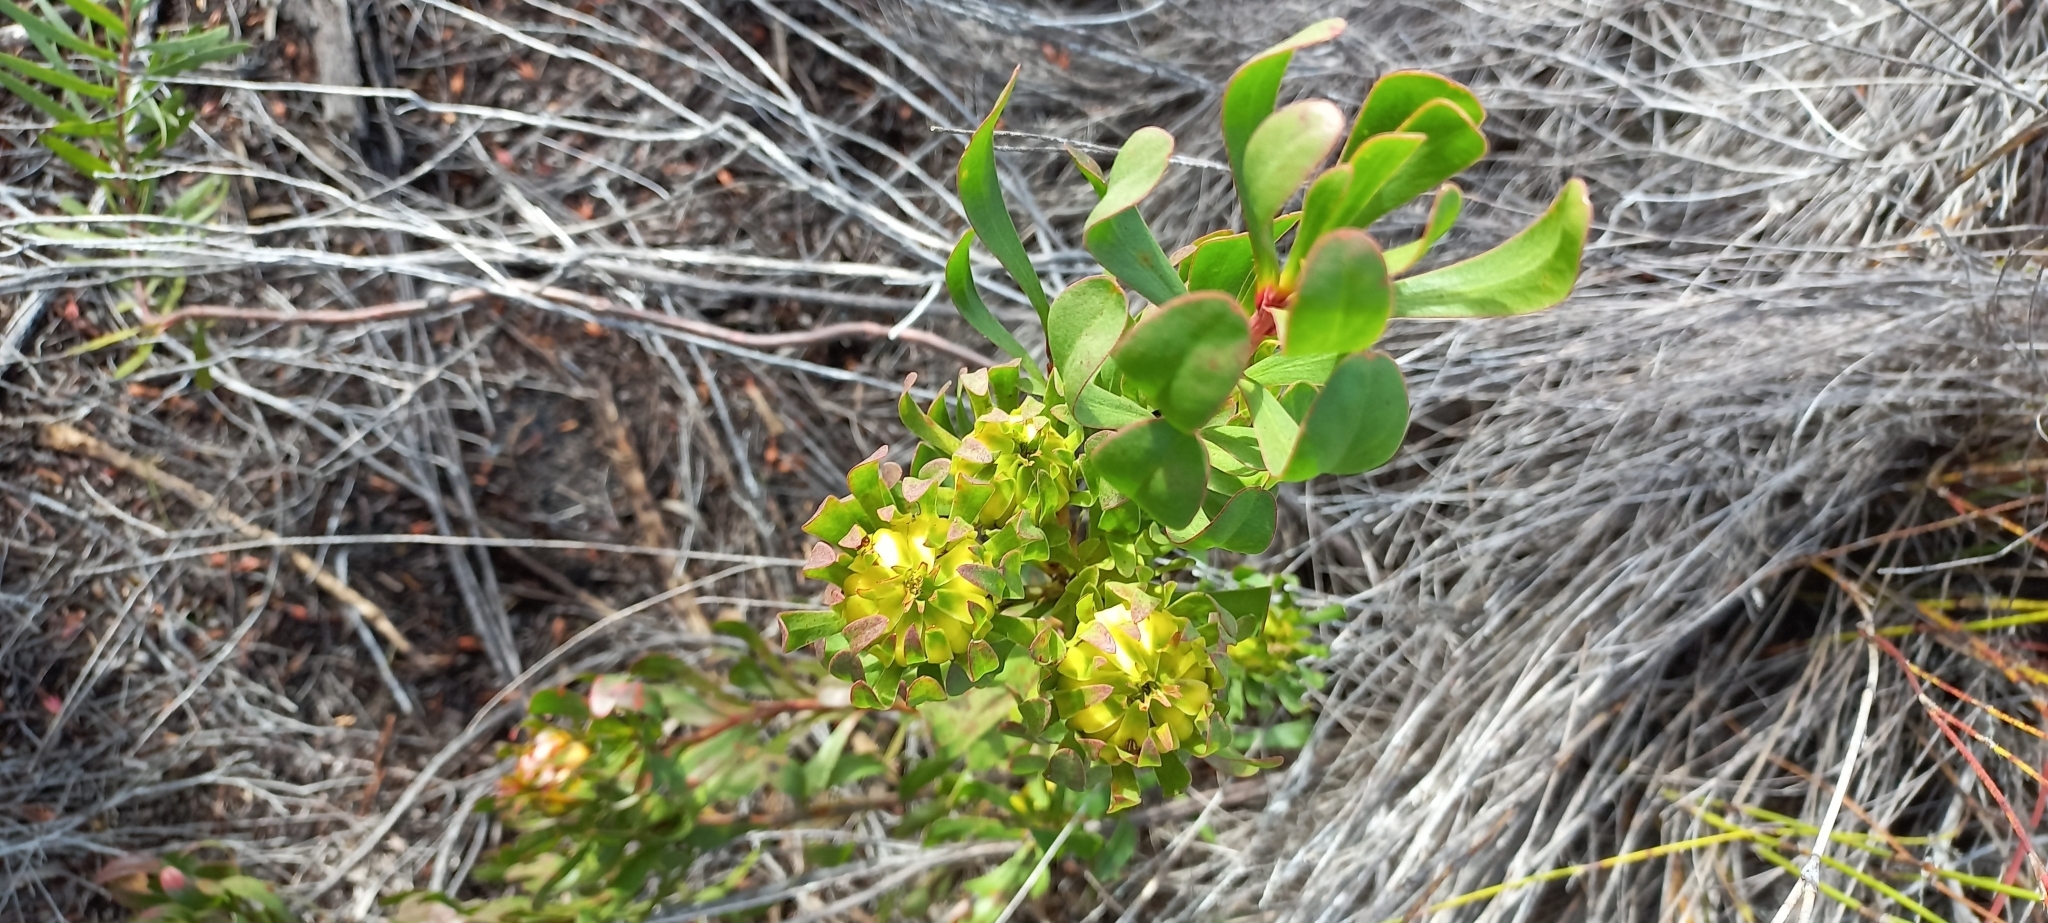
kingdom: Plantae
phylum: Tracheophyta
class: Magnoliopsida
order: Proteales
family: Proteaceae
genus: Aulax
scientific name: Aulax umbellata
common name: Broad-leaf featherbush
